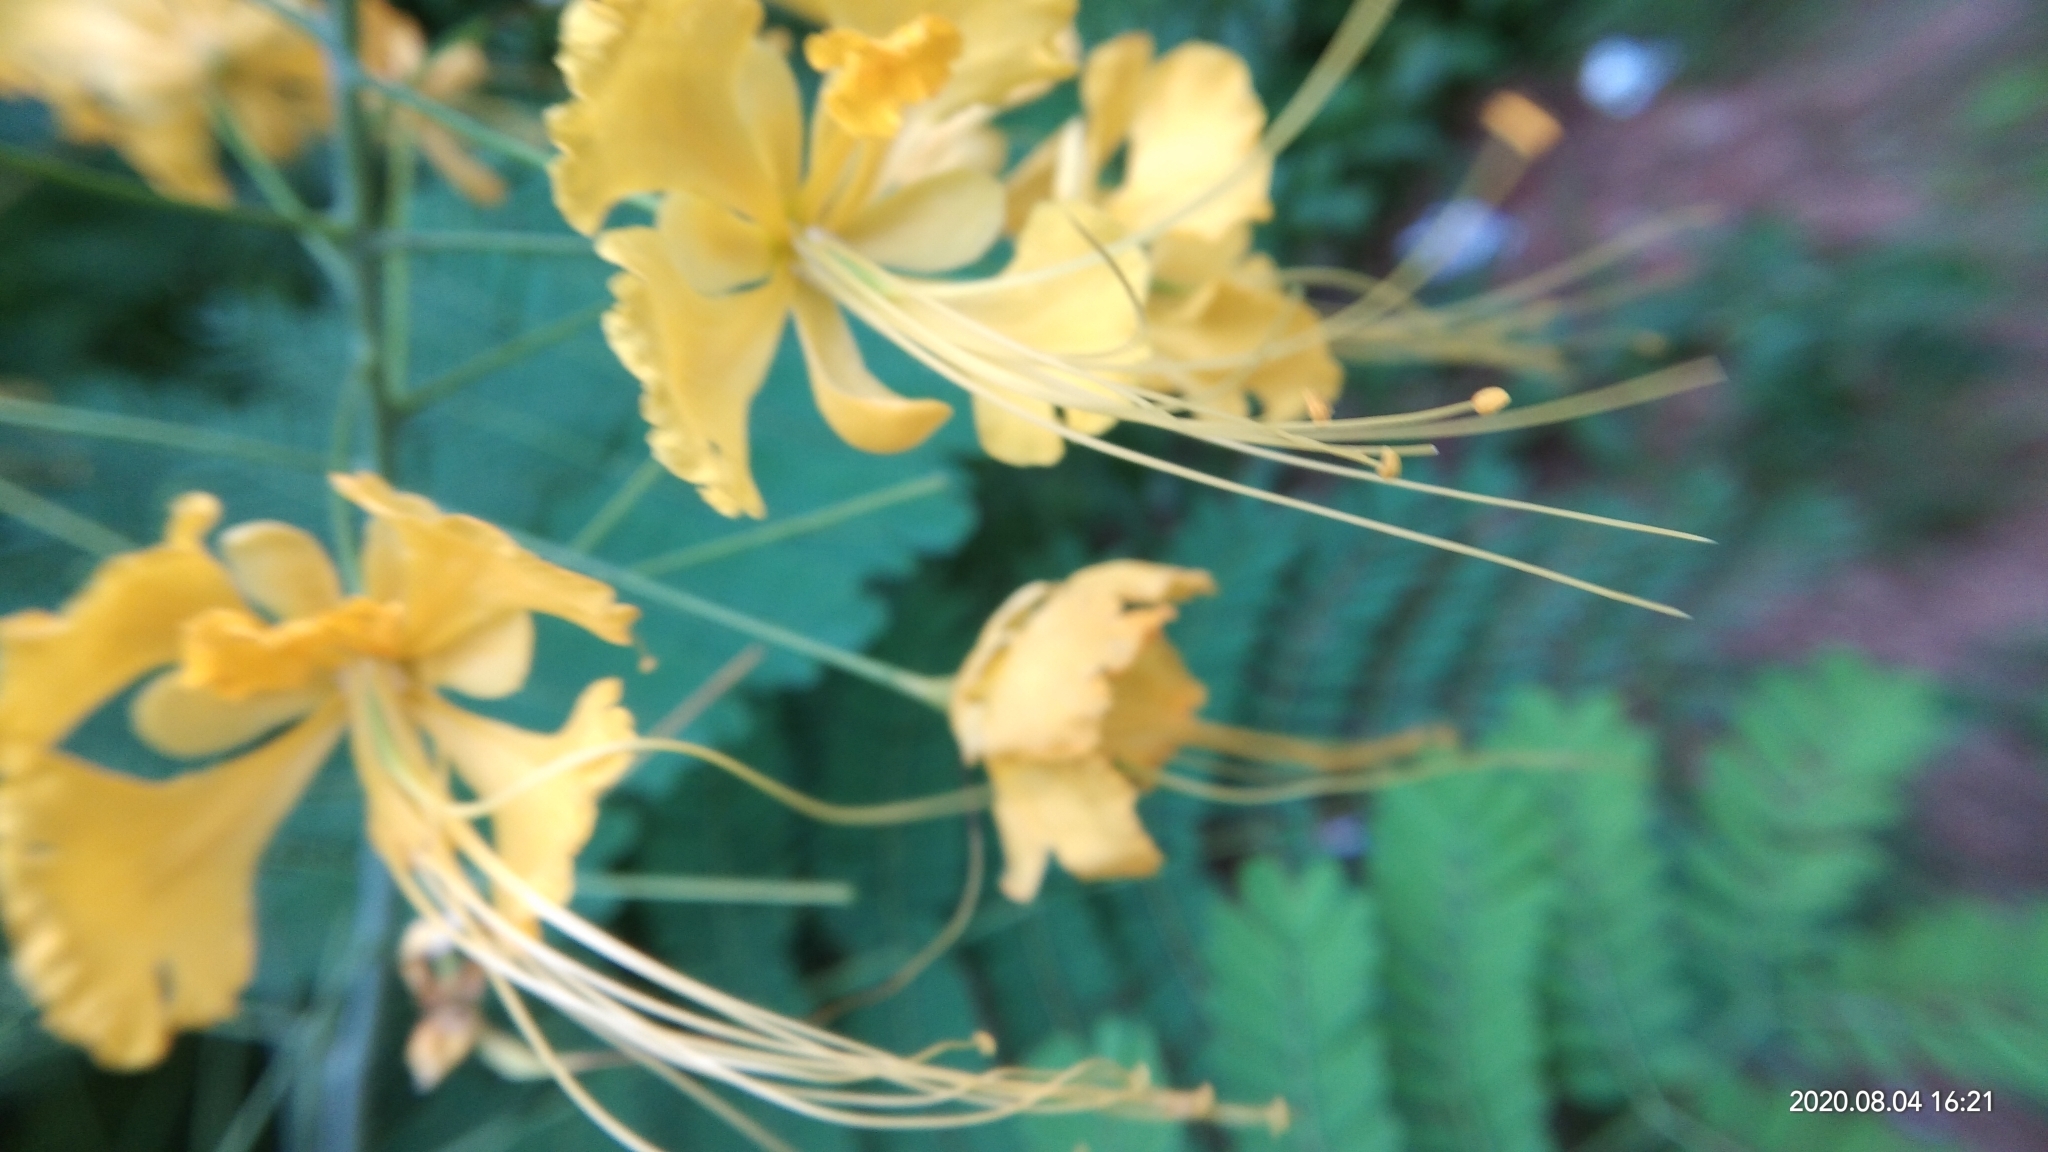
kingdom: Plantae
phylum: Tracheophyta
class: Magnoliopsida
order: Fabales
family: Fabaceae
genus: Caesalpinia
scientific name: Caesalpinia pulcherrima
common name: Pride-of-barbados
